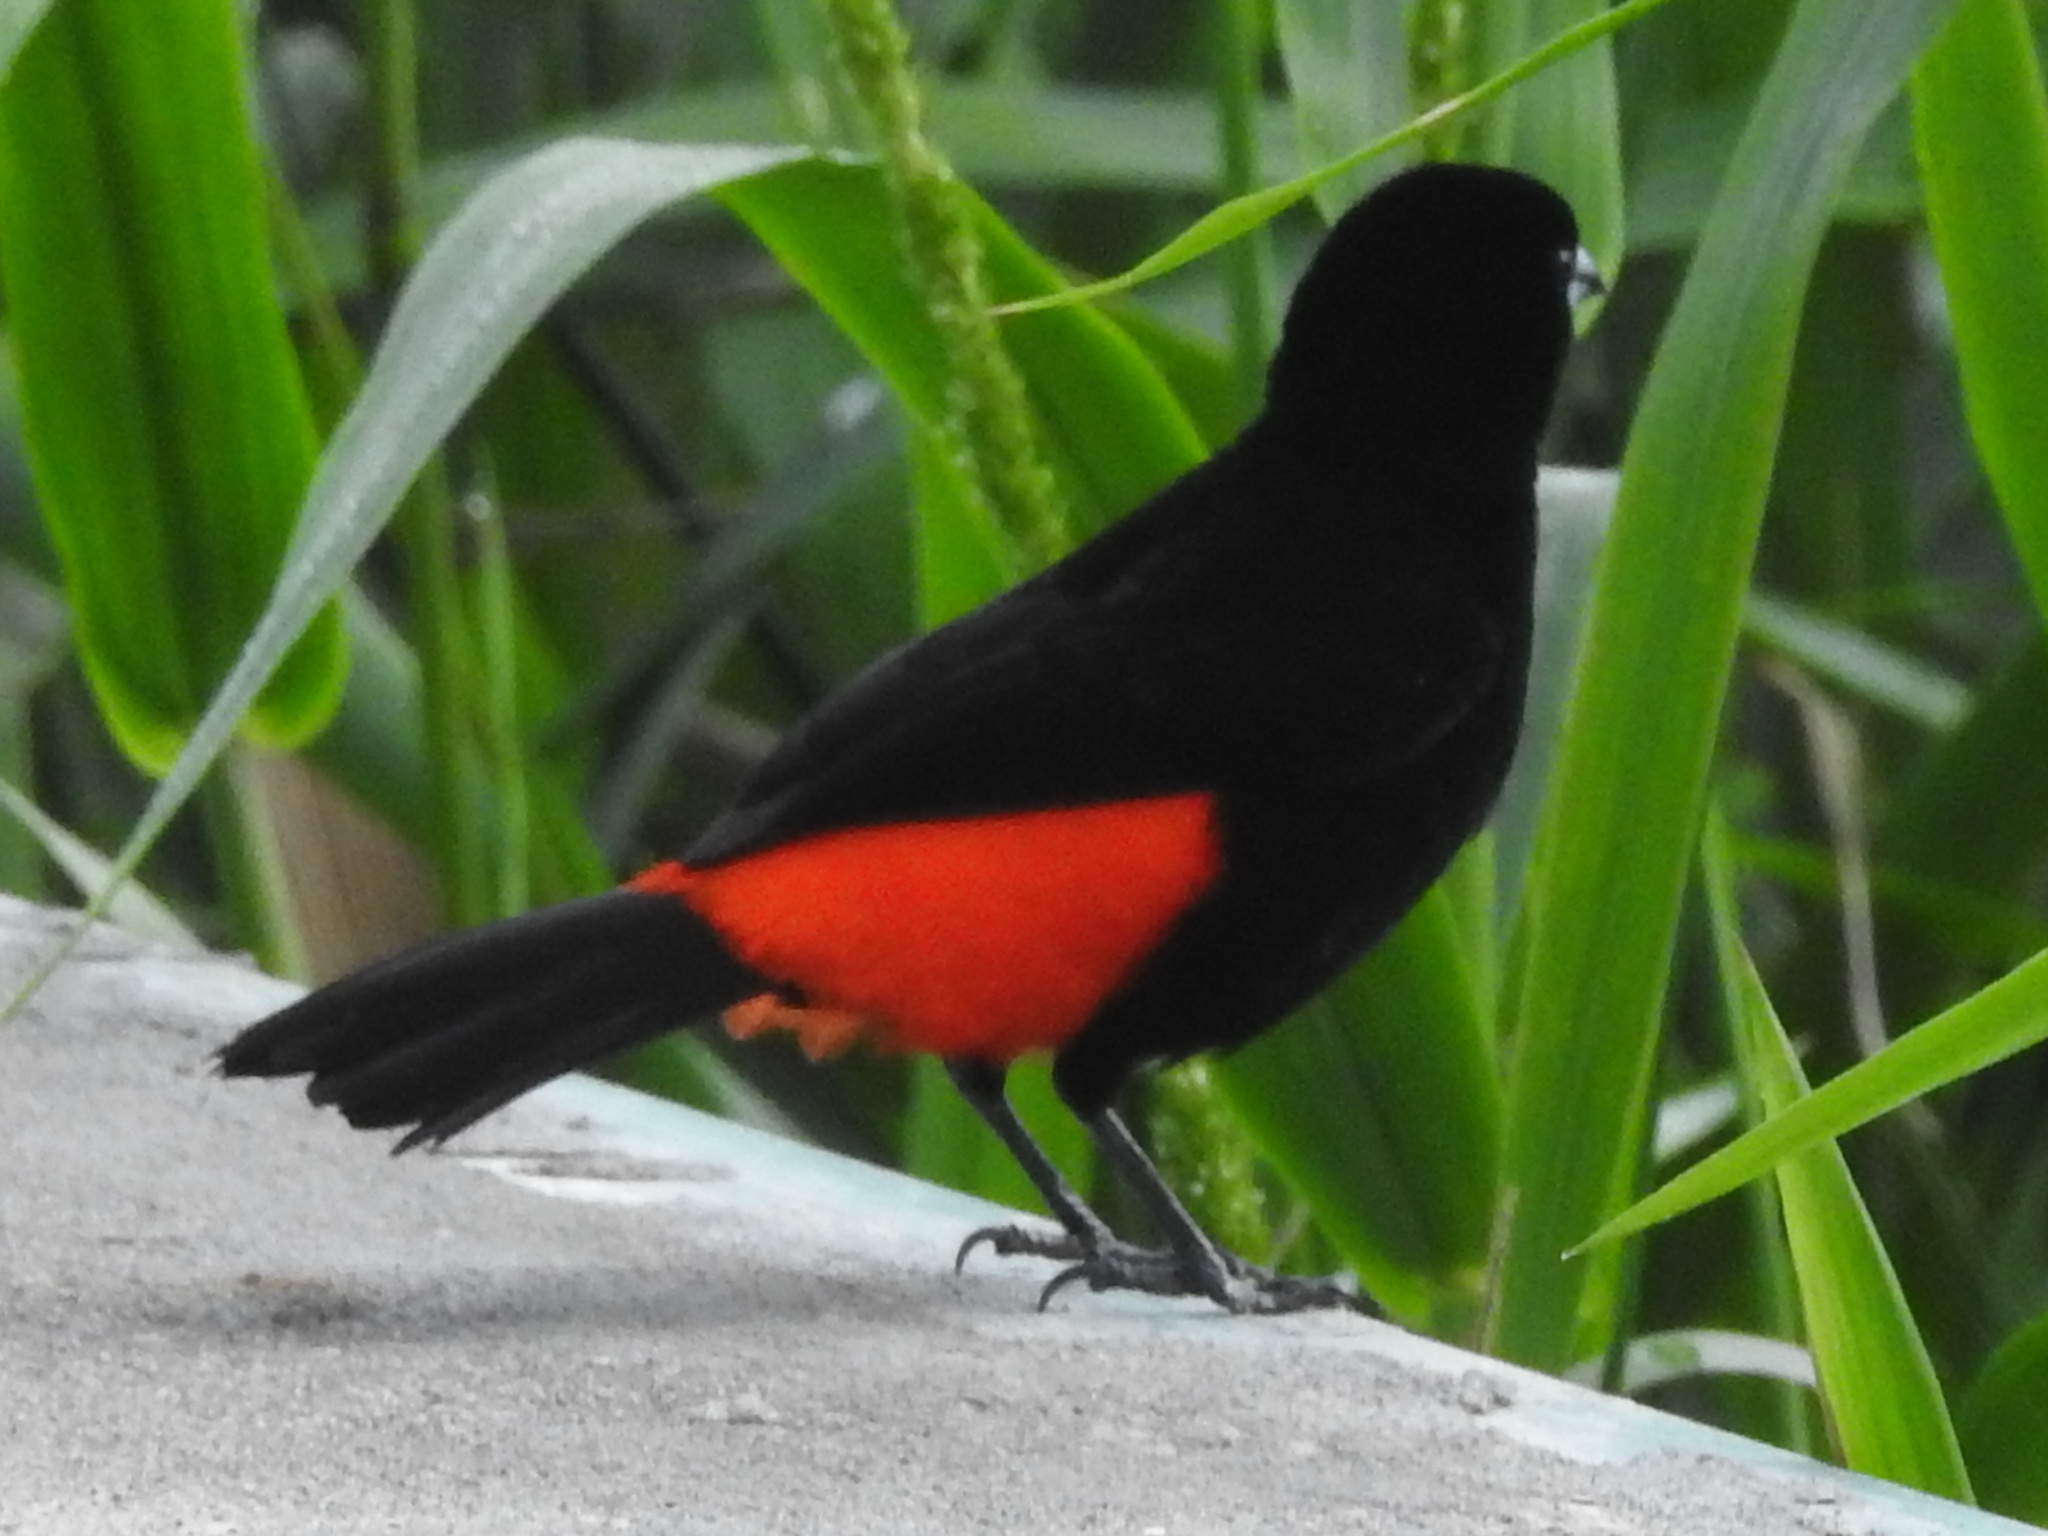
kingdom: Animalia
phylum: Chordata
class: Aves
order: Passeriformes
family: Thraupidae
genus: Ramphocelus
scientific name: Ramphocelus passerinii
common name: Passerini's tanager
